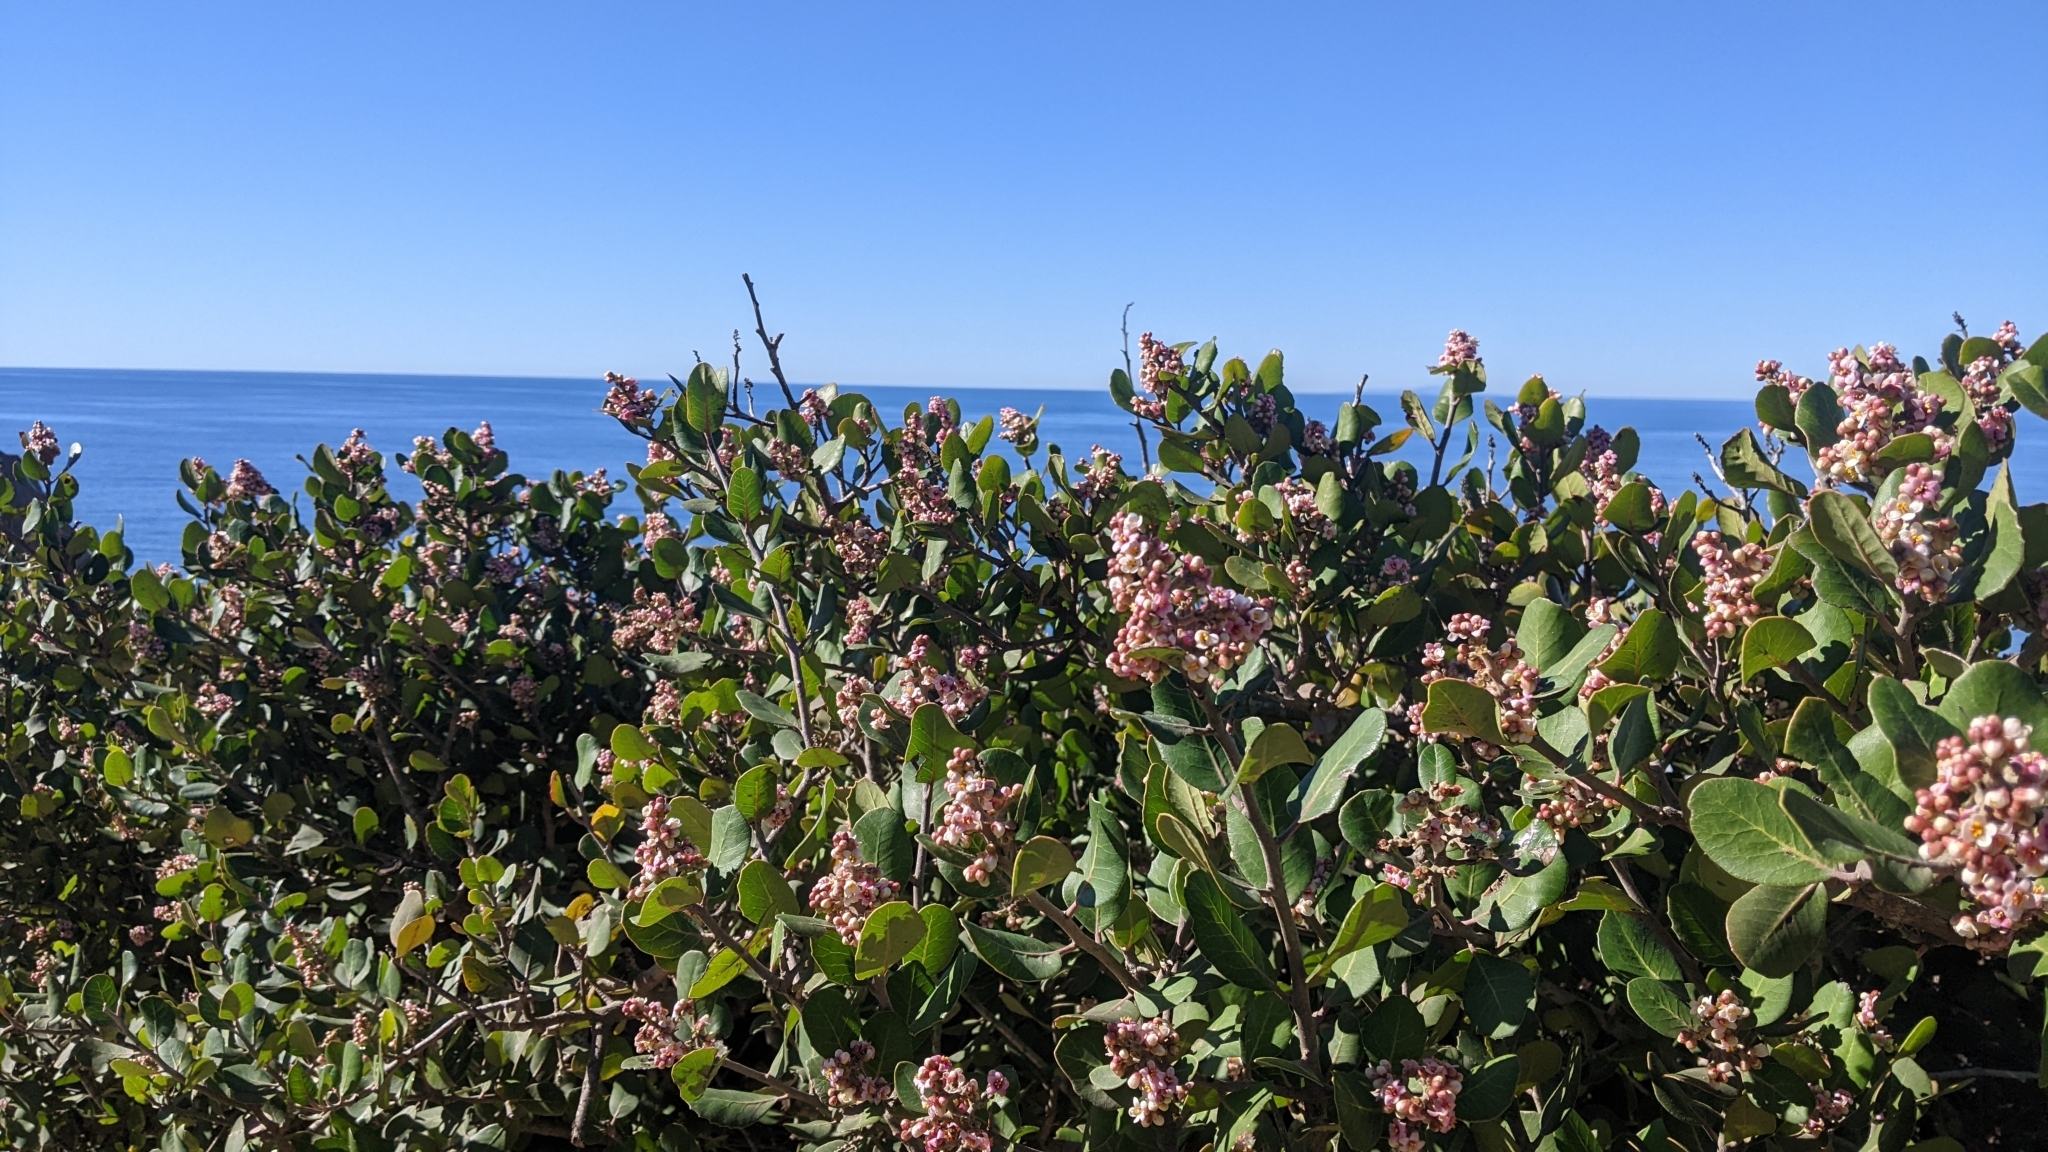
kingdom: Plantae
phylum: Tracheophyta
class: Magnoliopsida
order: Sapindales
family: Anacardiaceae
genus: Rhus
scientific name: Rhus integrifolia
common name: Lemonade sumac
